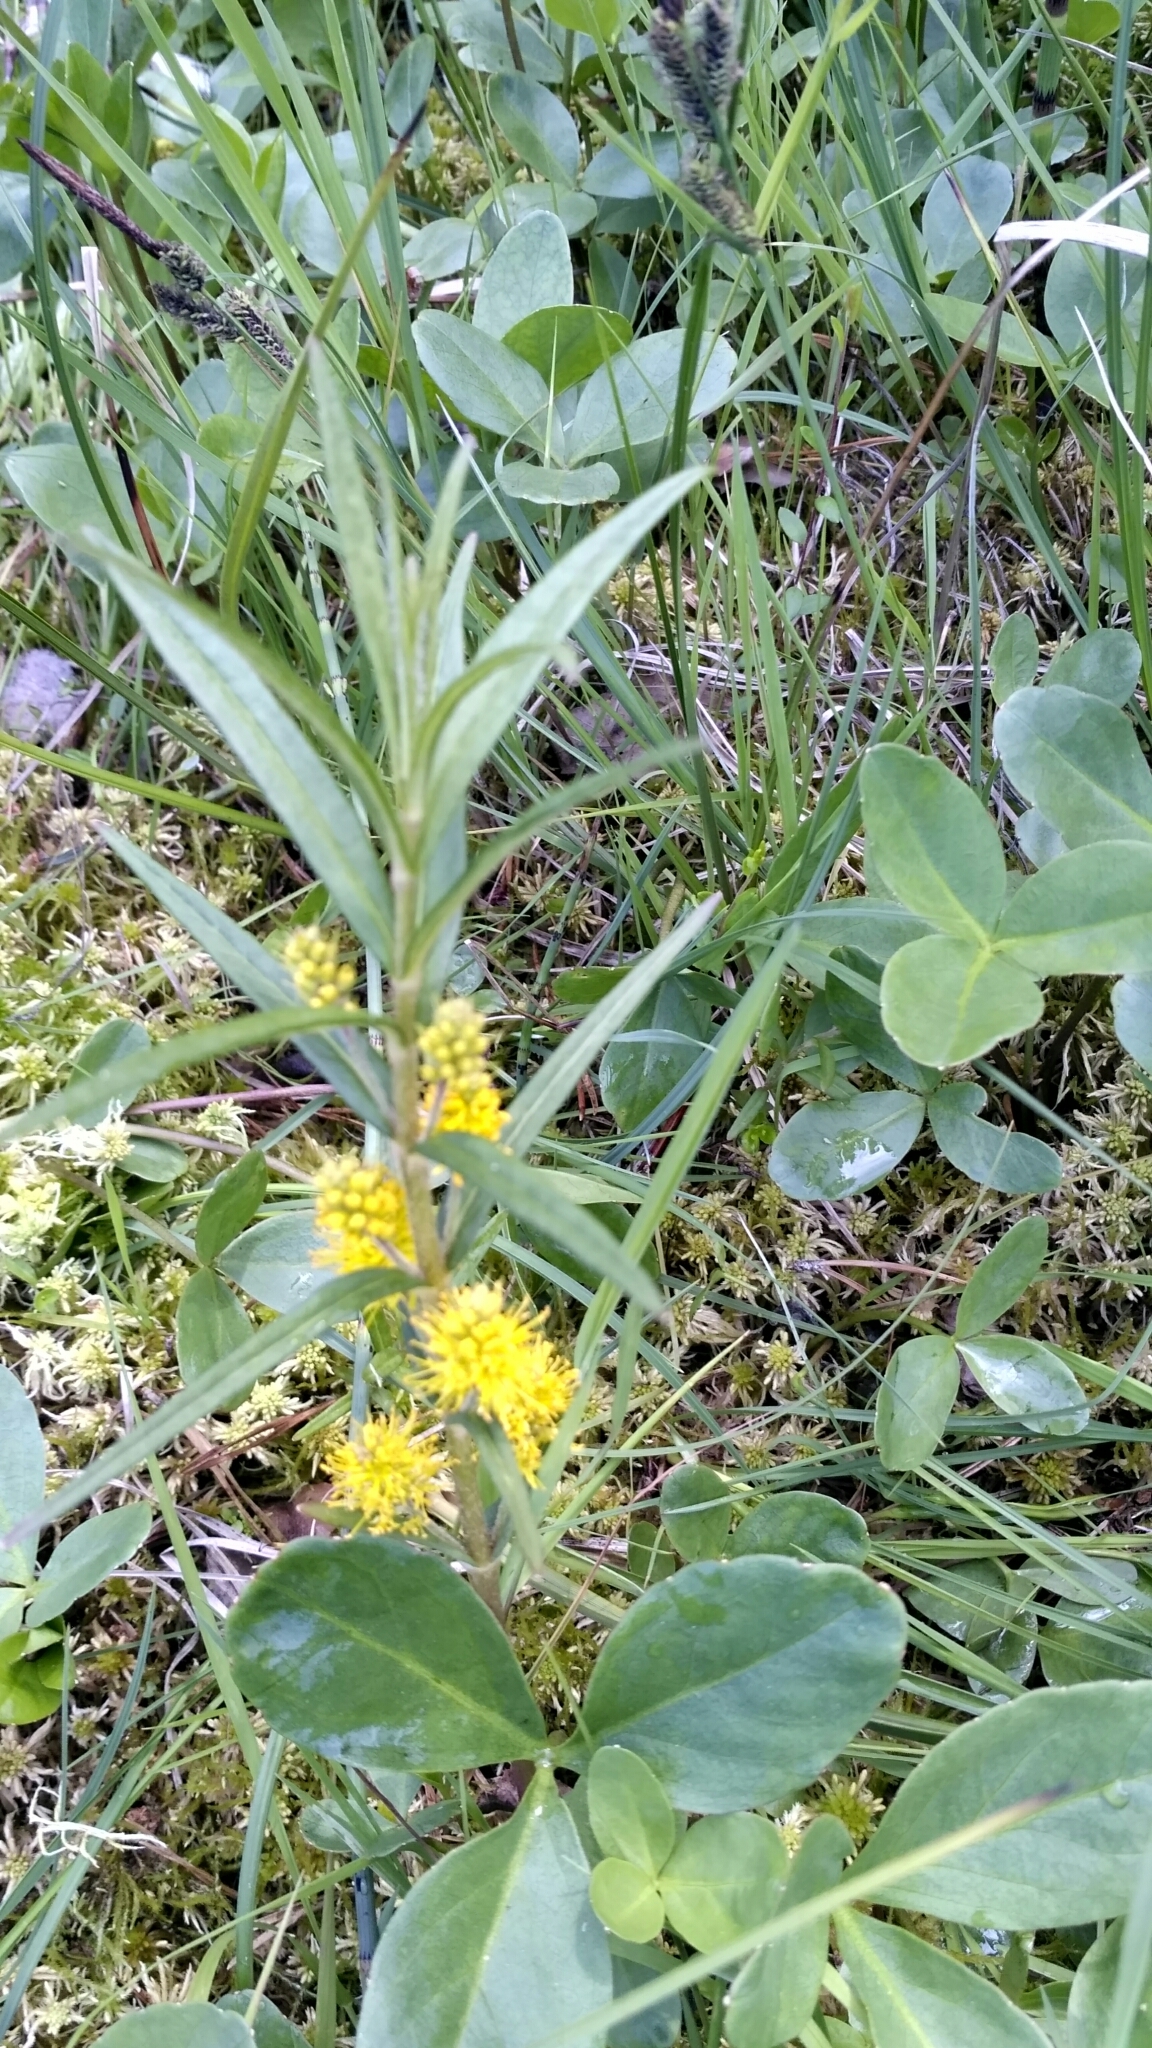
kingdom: Plantae
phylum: Tracheophyta
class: Magnoliopsida
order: Ericales
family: Primulaceae
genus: Lysimachia
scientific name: Lysimachia thyrsiflora
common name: Tufted loosestrife
